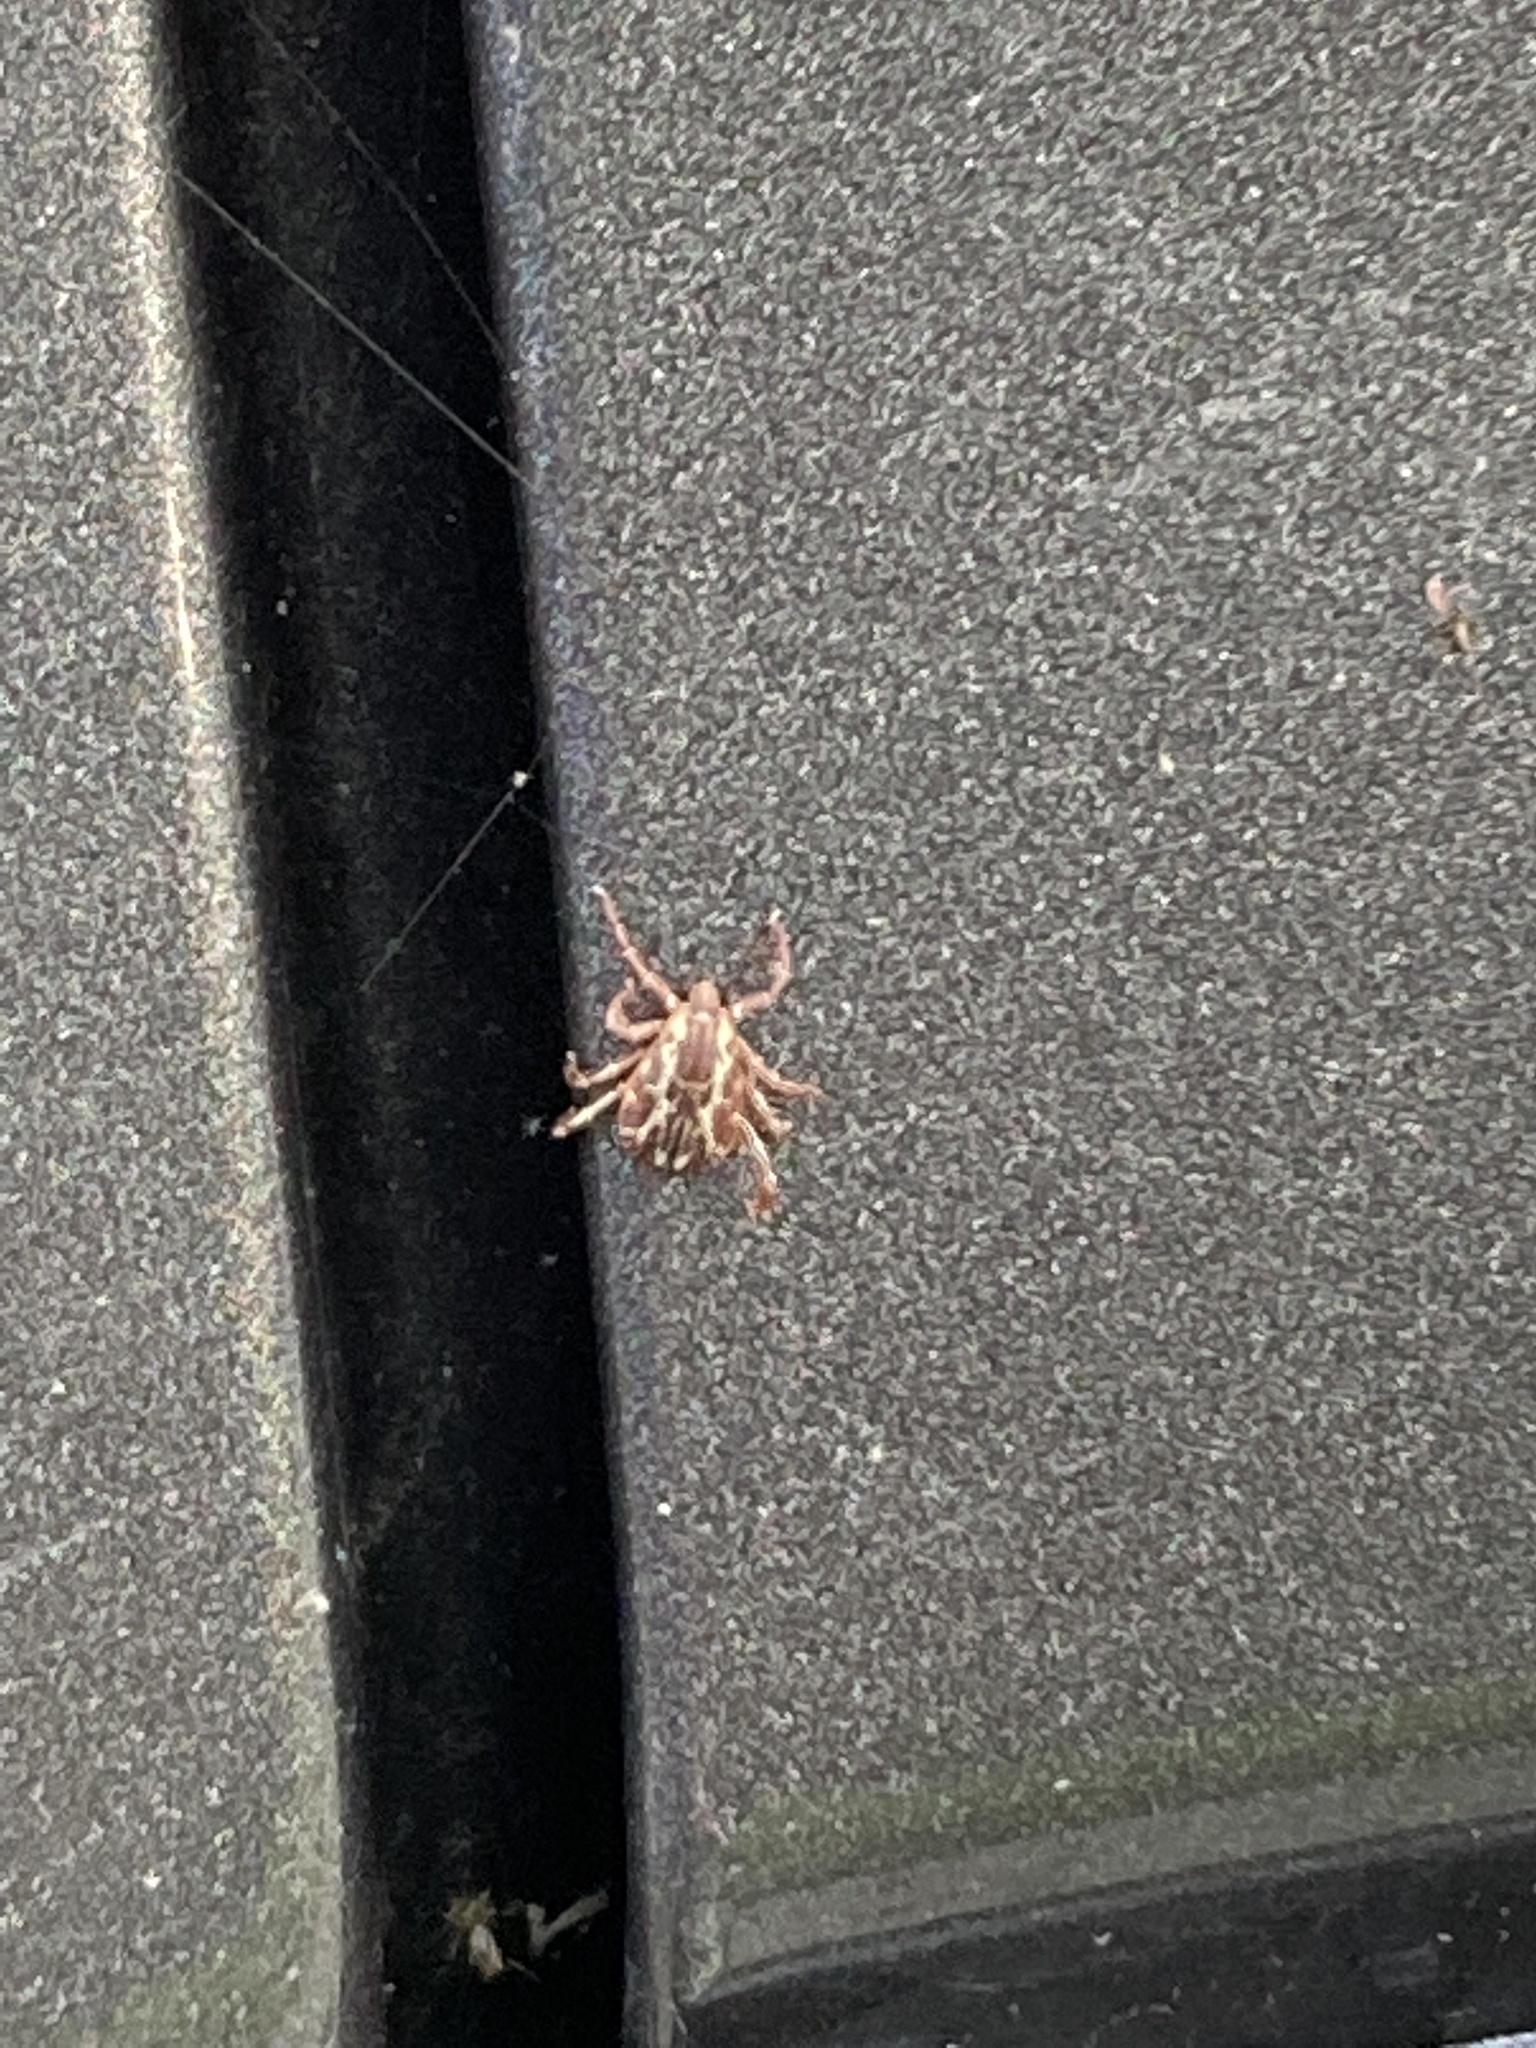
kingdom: Animalia
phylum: Arthropoda
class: Arachnida
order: Ixodida
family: Ixodidae
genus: Dermacentor
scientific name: Dermacentor variabilis
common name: American dog tick
